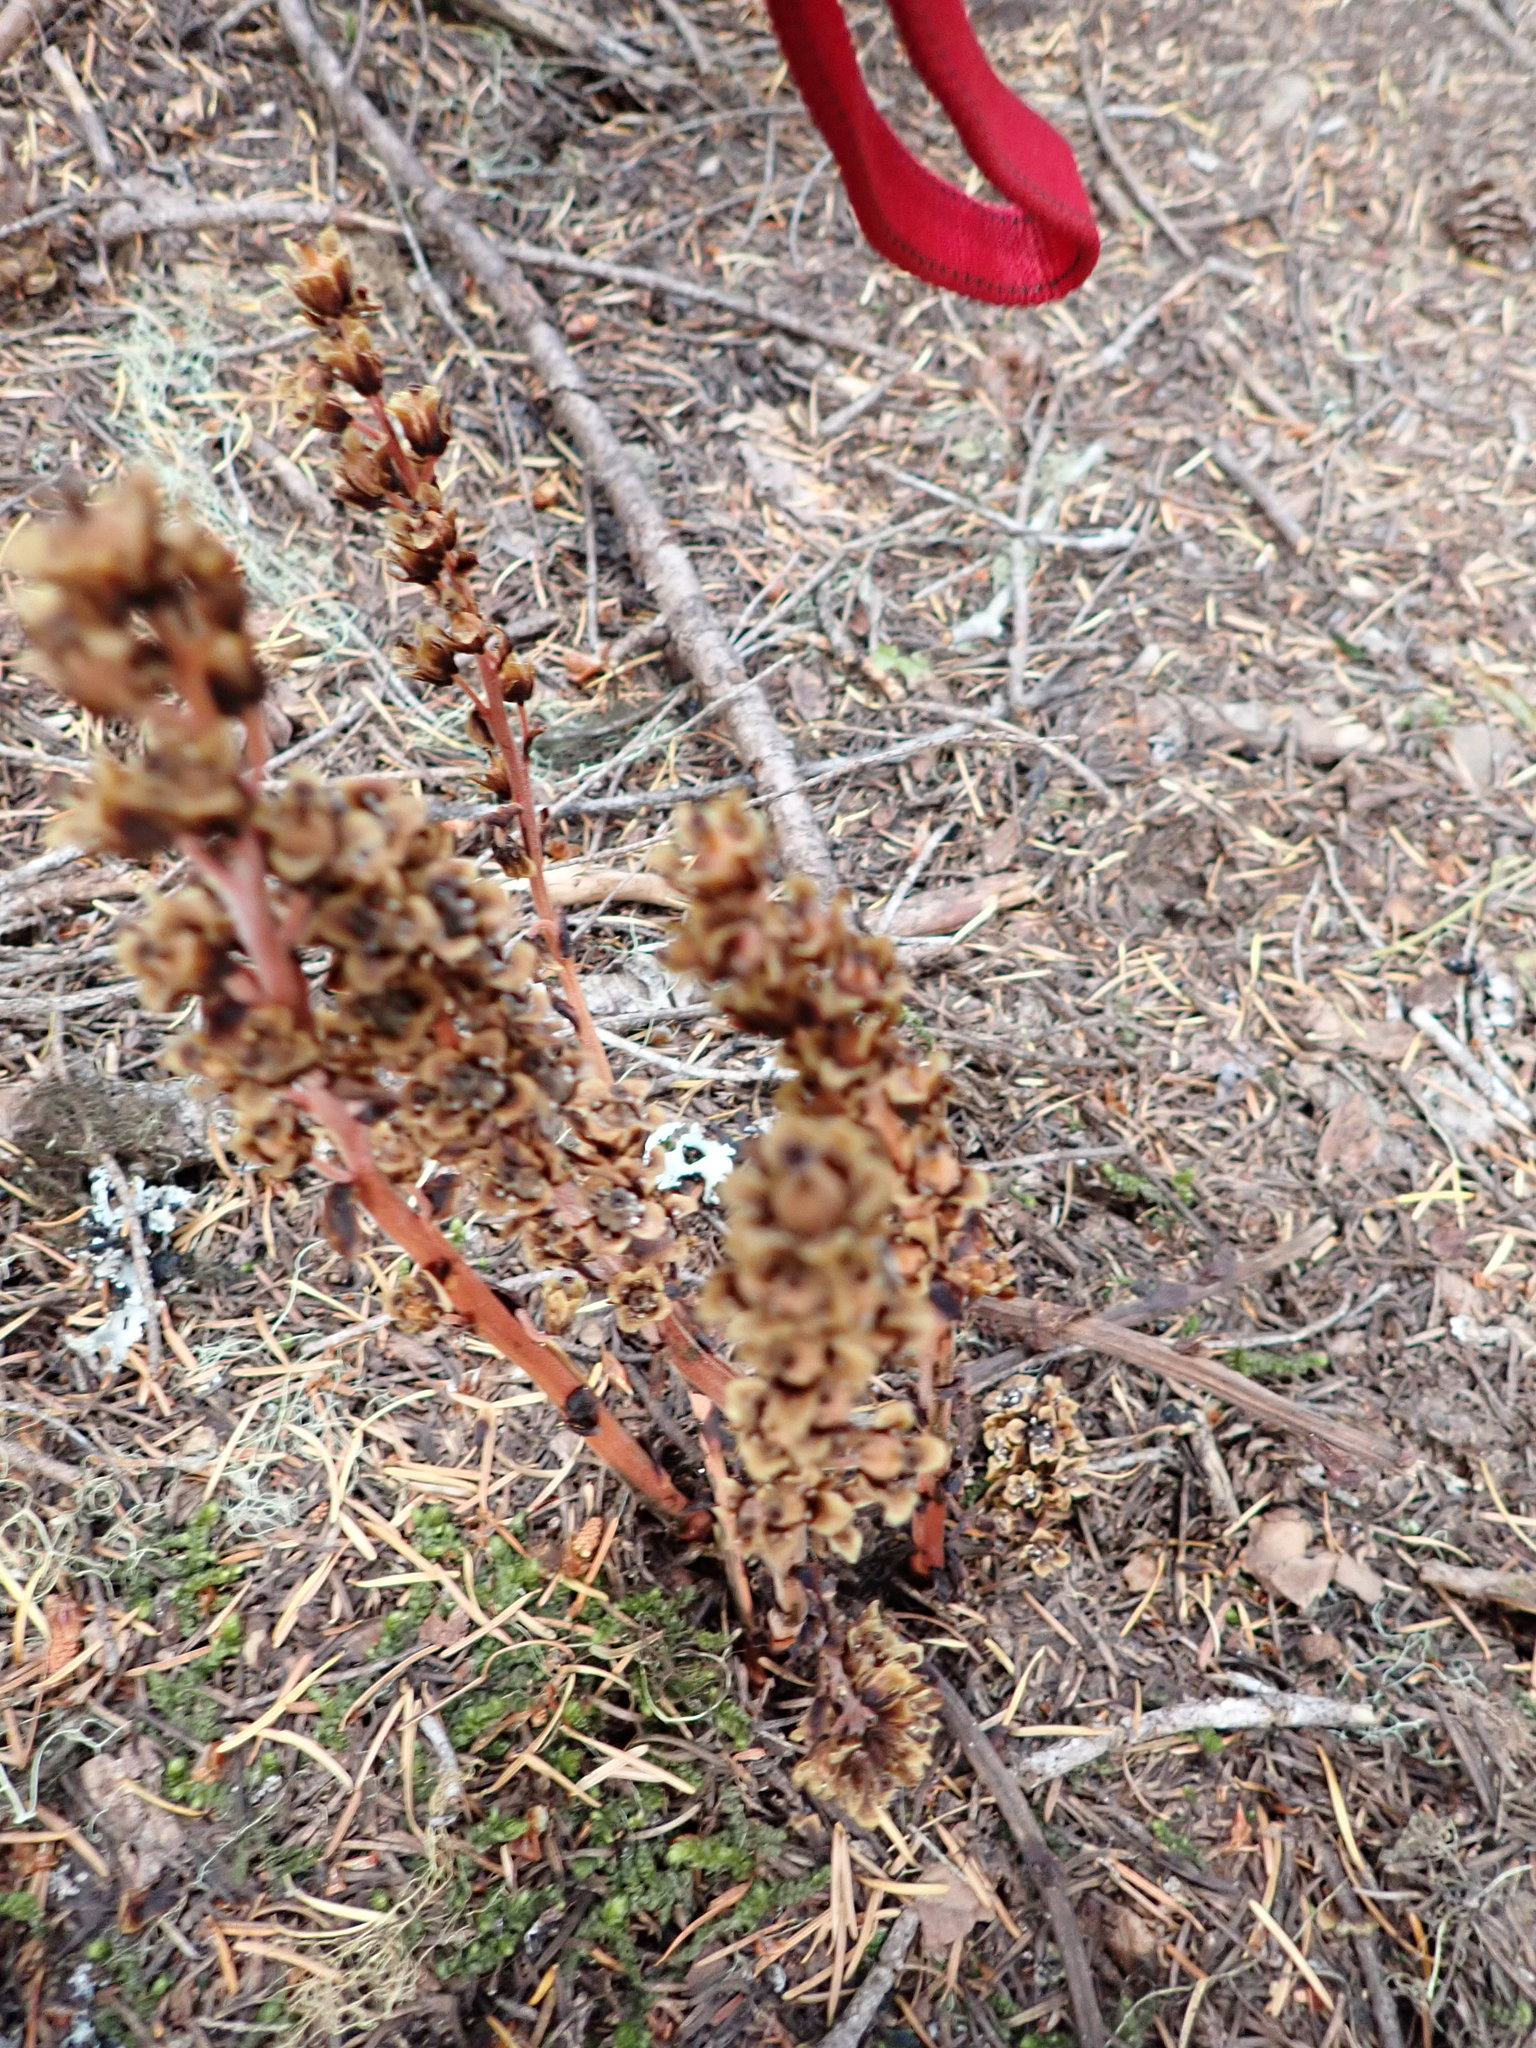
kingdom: Plantae
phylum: Tracheophyta
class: Magnoliopsida
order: Ericales
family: Ericaceae
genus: Hypopitys
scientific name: Hypopitys monotropa
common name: Yellow bird's-nest
